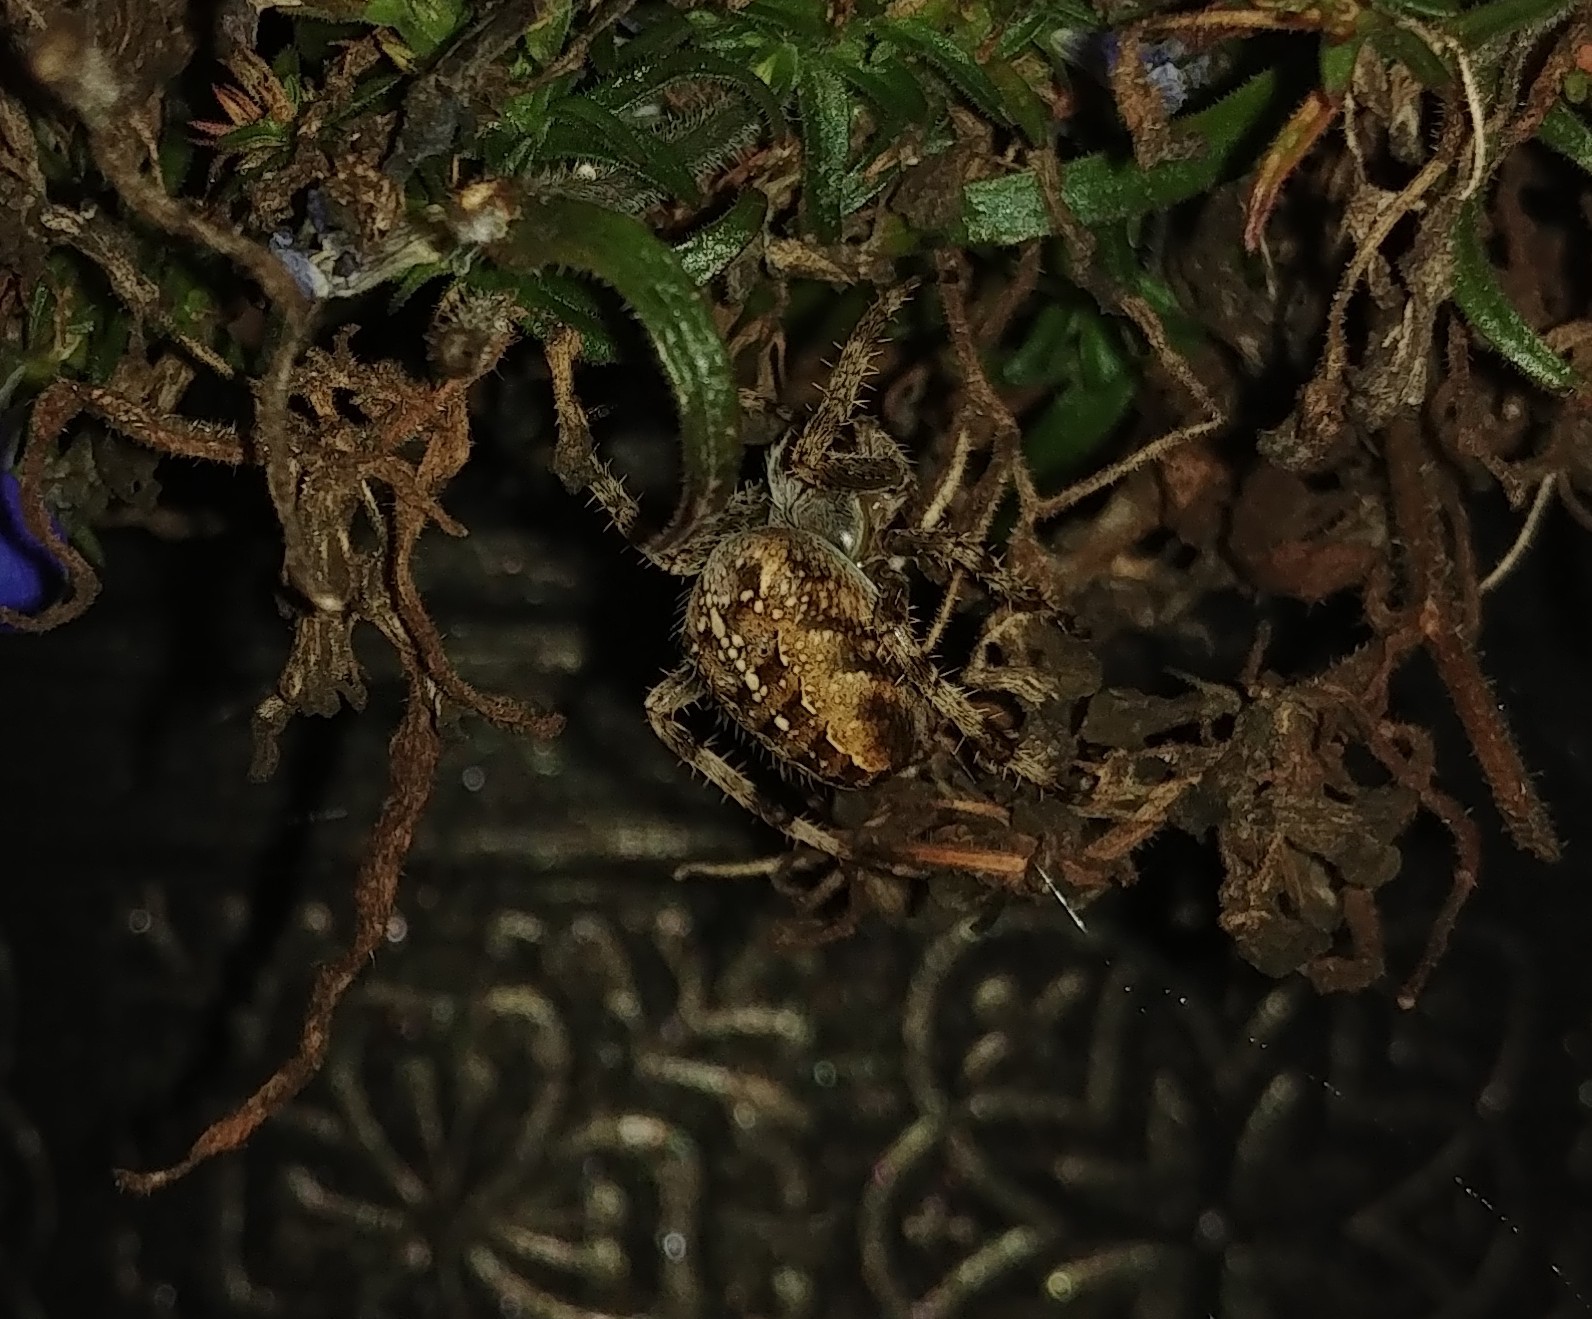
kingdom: Animalia
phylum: Arthropoda
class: Arachnida
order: Araneae
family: Araneidae
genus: Araneus
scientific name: Araneus diadematus
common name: Cross orbweaver
